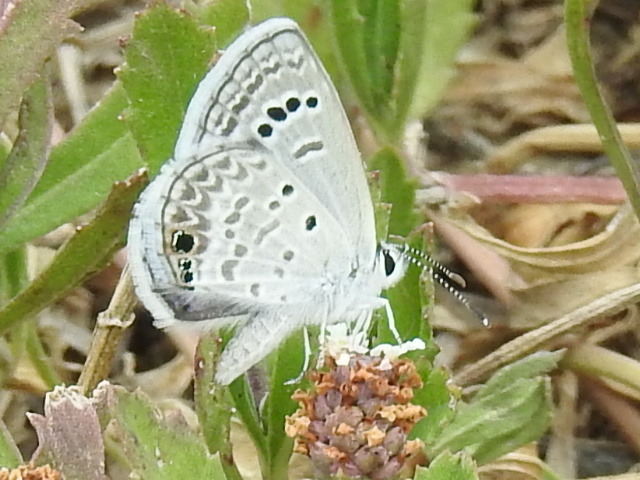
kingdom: Animalia
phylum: Arthropoda
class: Insecta
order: Lepidoptera
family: Lycaenidae
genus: Echinargus
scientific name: Echinargus isola
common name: Reakirt's blue
